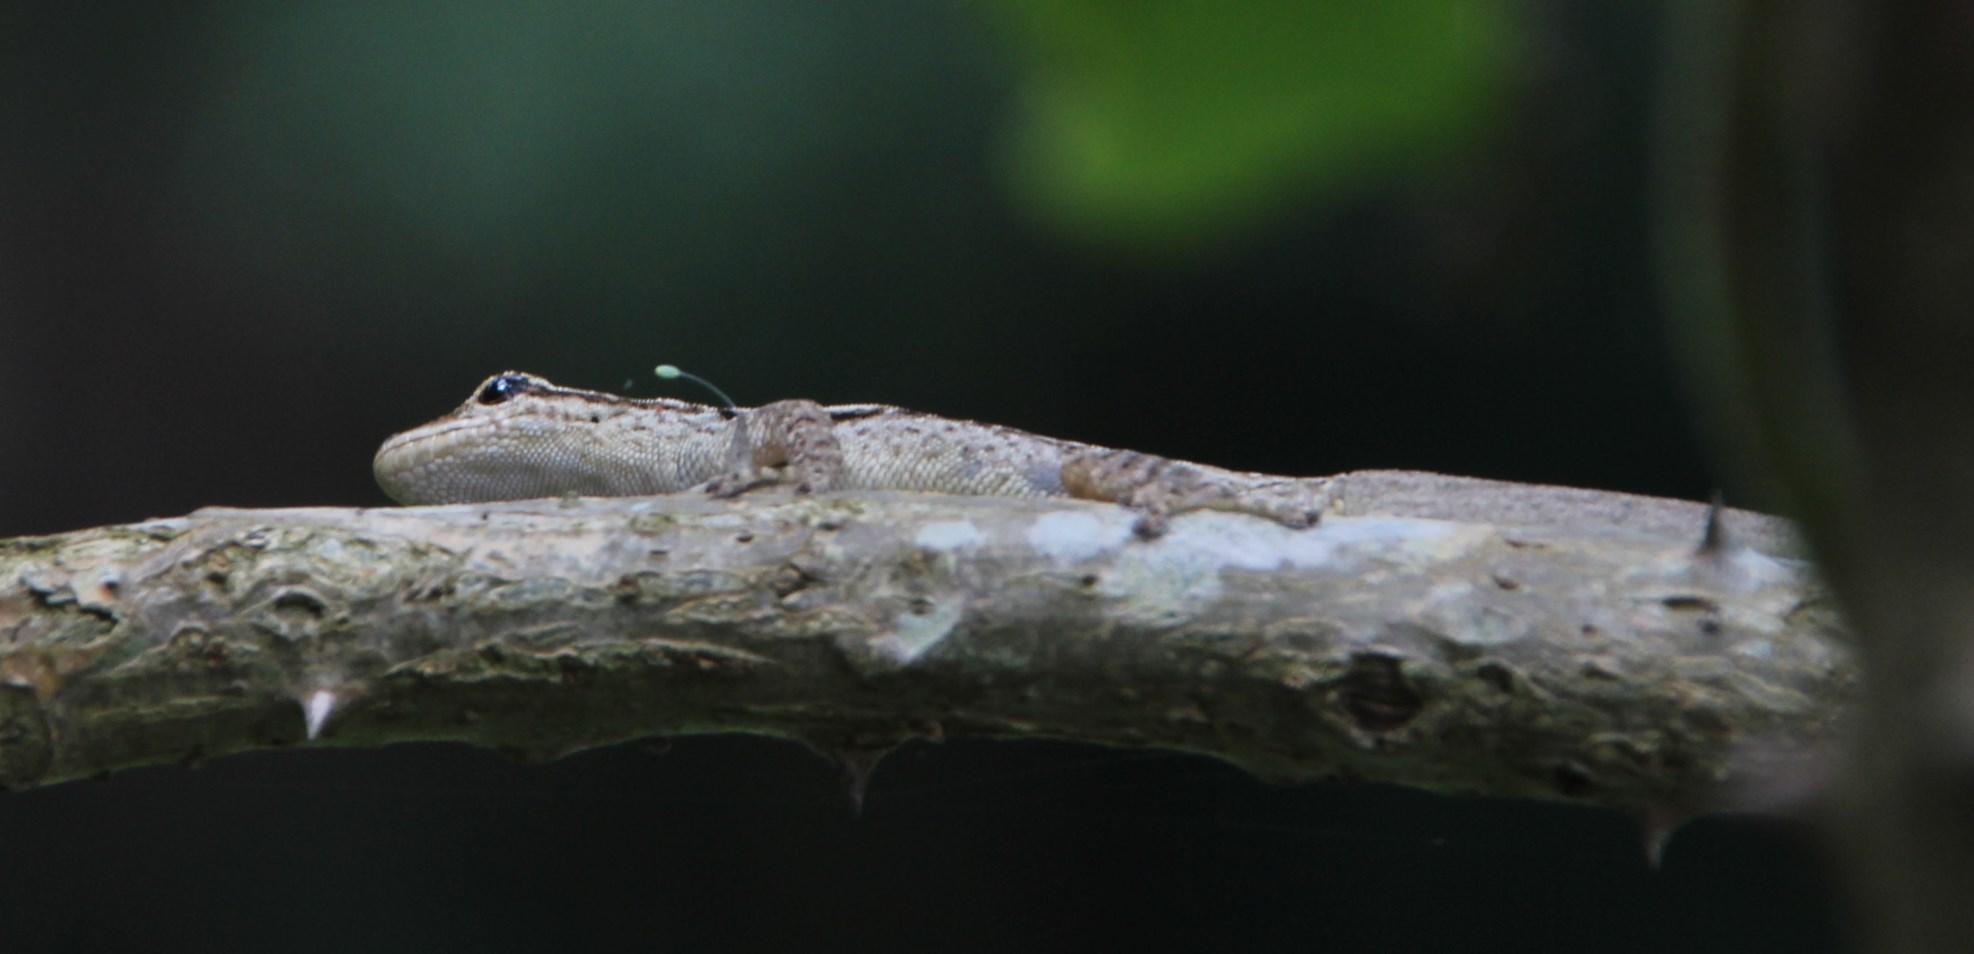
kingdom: Animalia
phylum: Chordata
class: Squamata
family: Gekkonidae
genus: Lygodactylus
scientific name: Lygodactylus capensis
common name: Cape dwarf gecko
